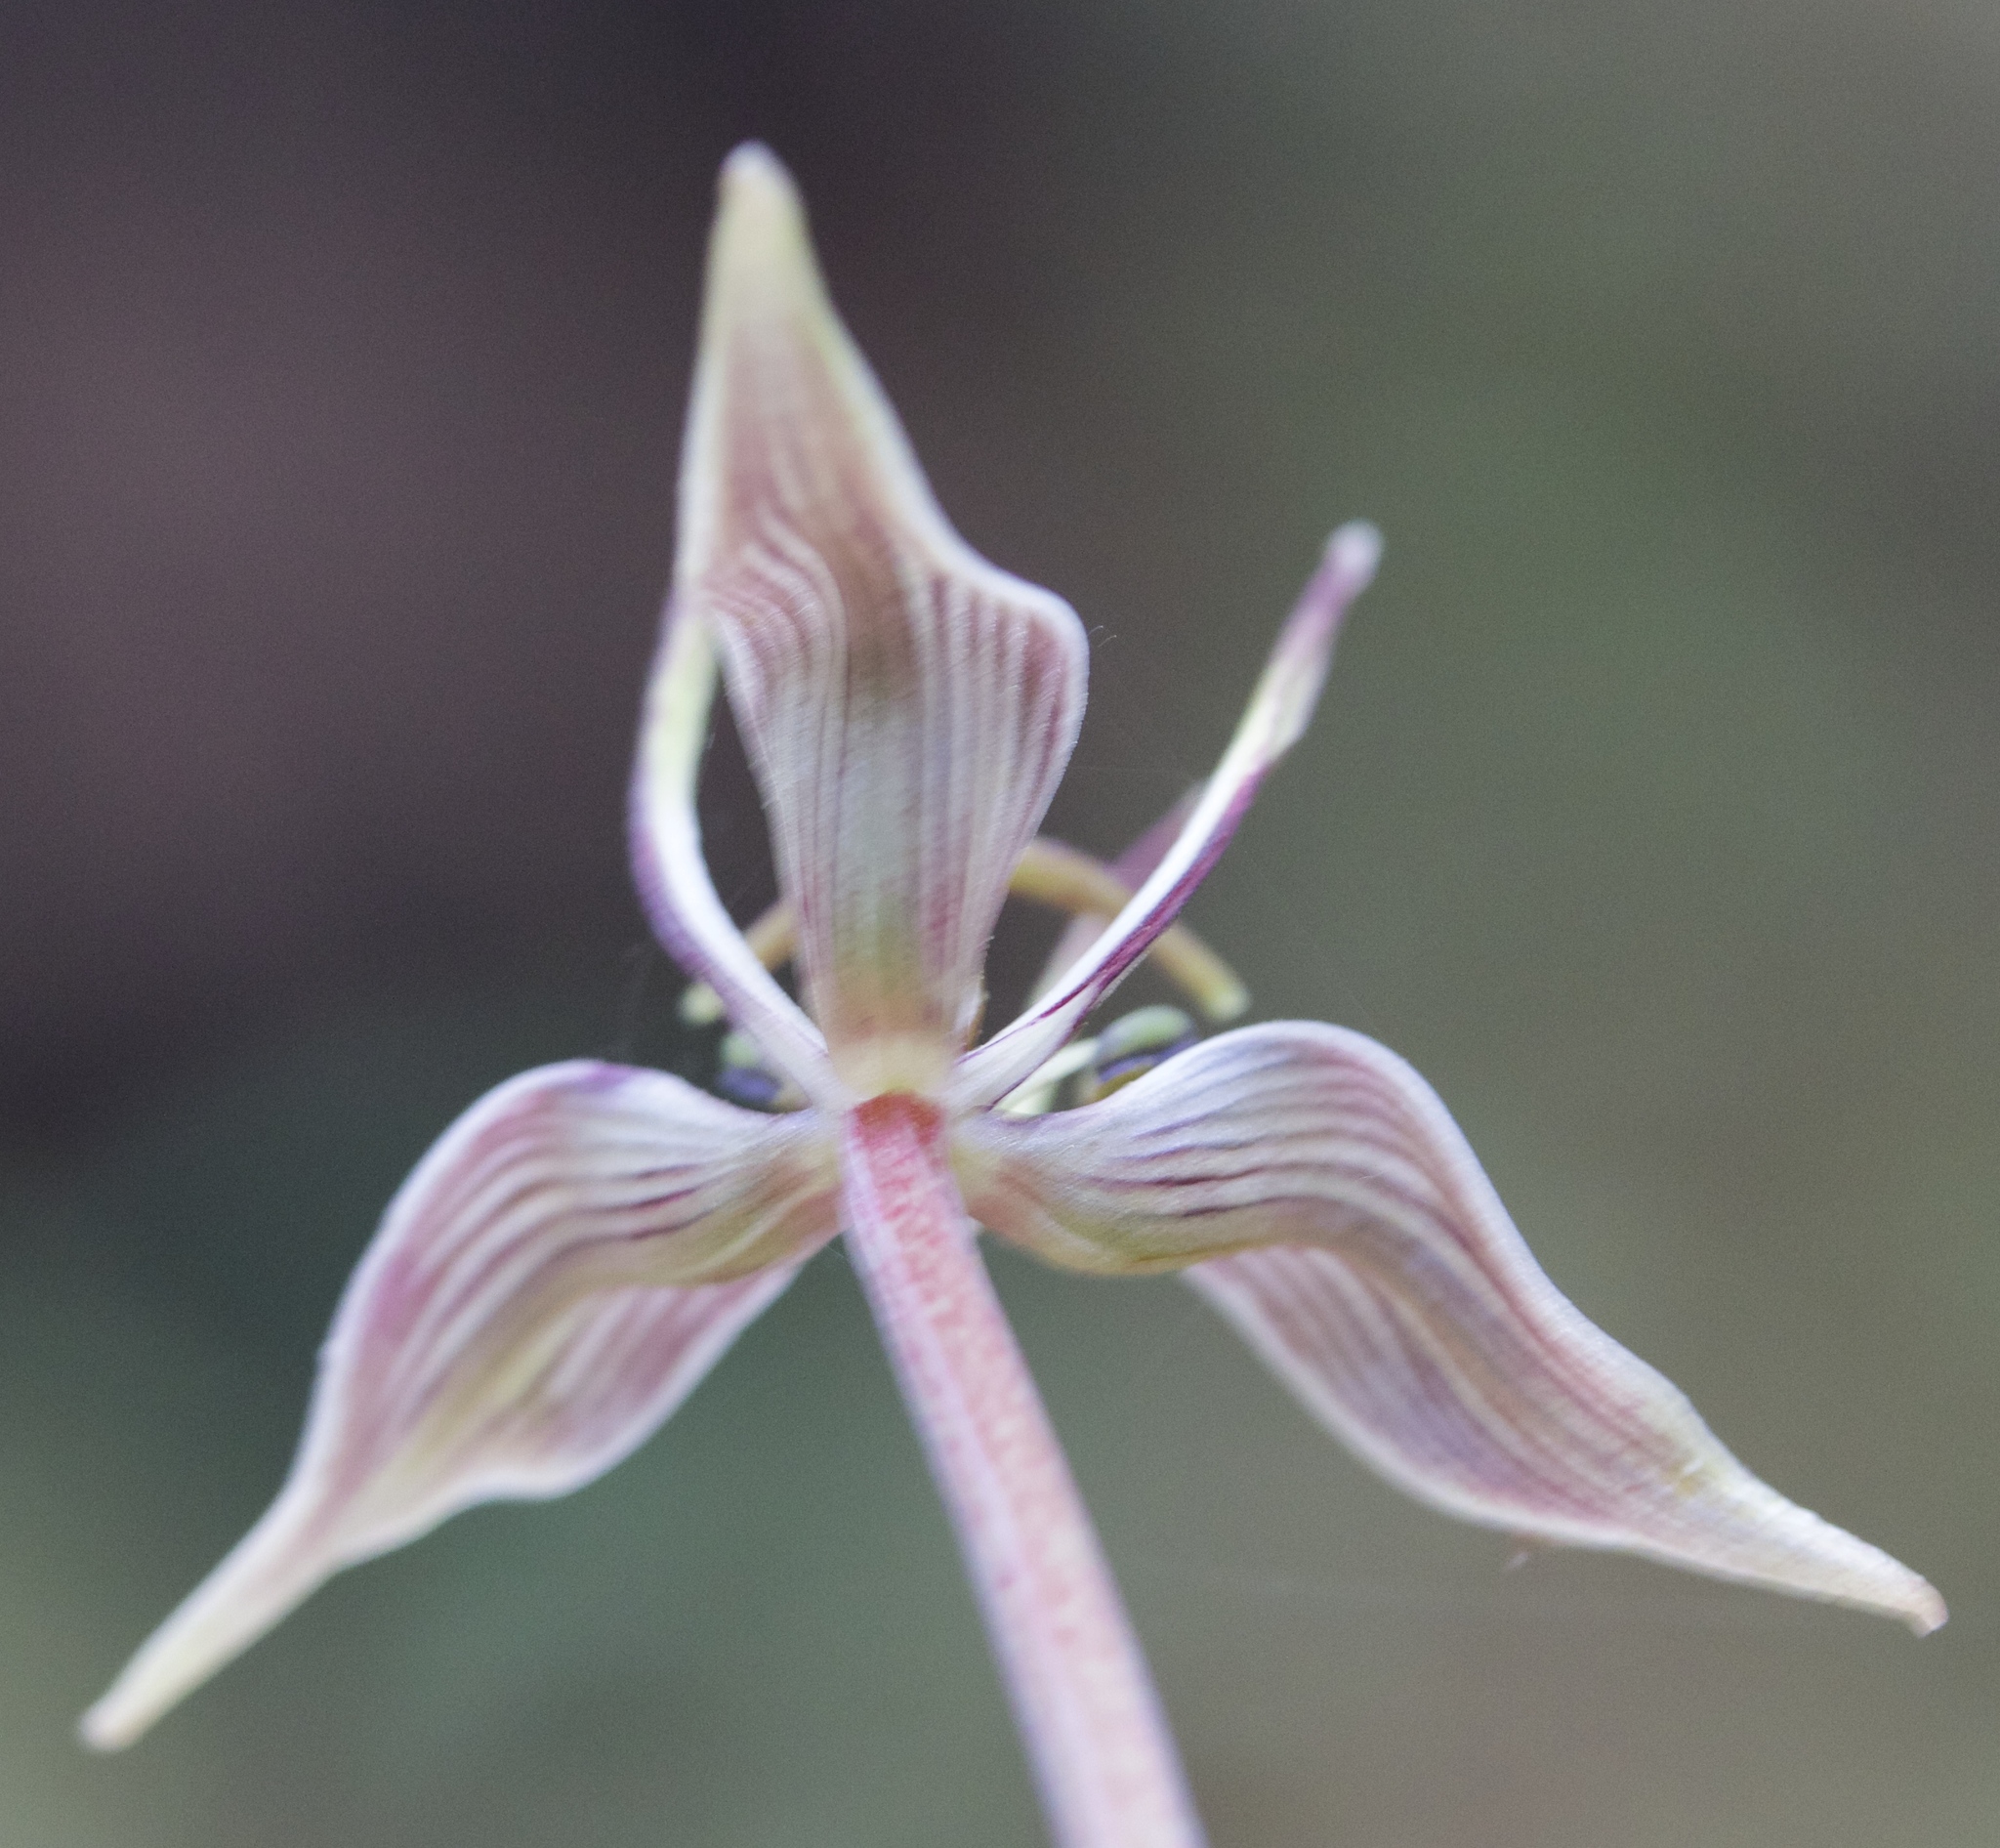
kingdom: Plantae
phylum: Tracheophyta
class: Liliopsida
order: Liliales
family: Liliaceae
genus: Scoliopus
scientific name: Scoliopus bigelovii
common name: Foetid adder's-tongue
